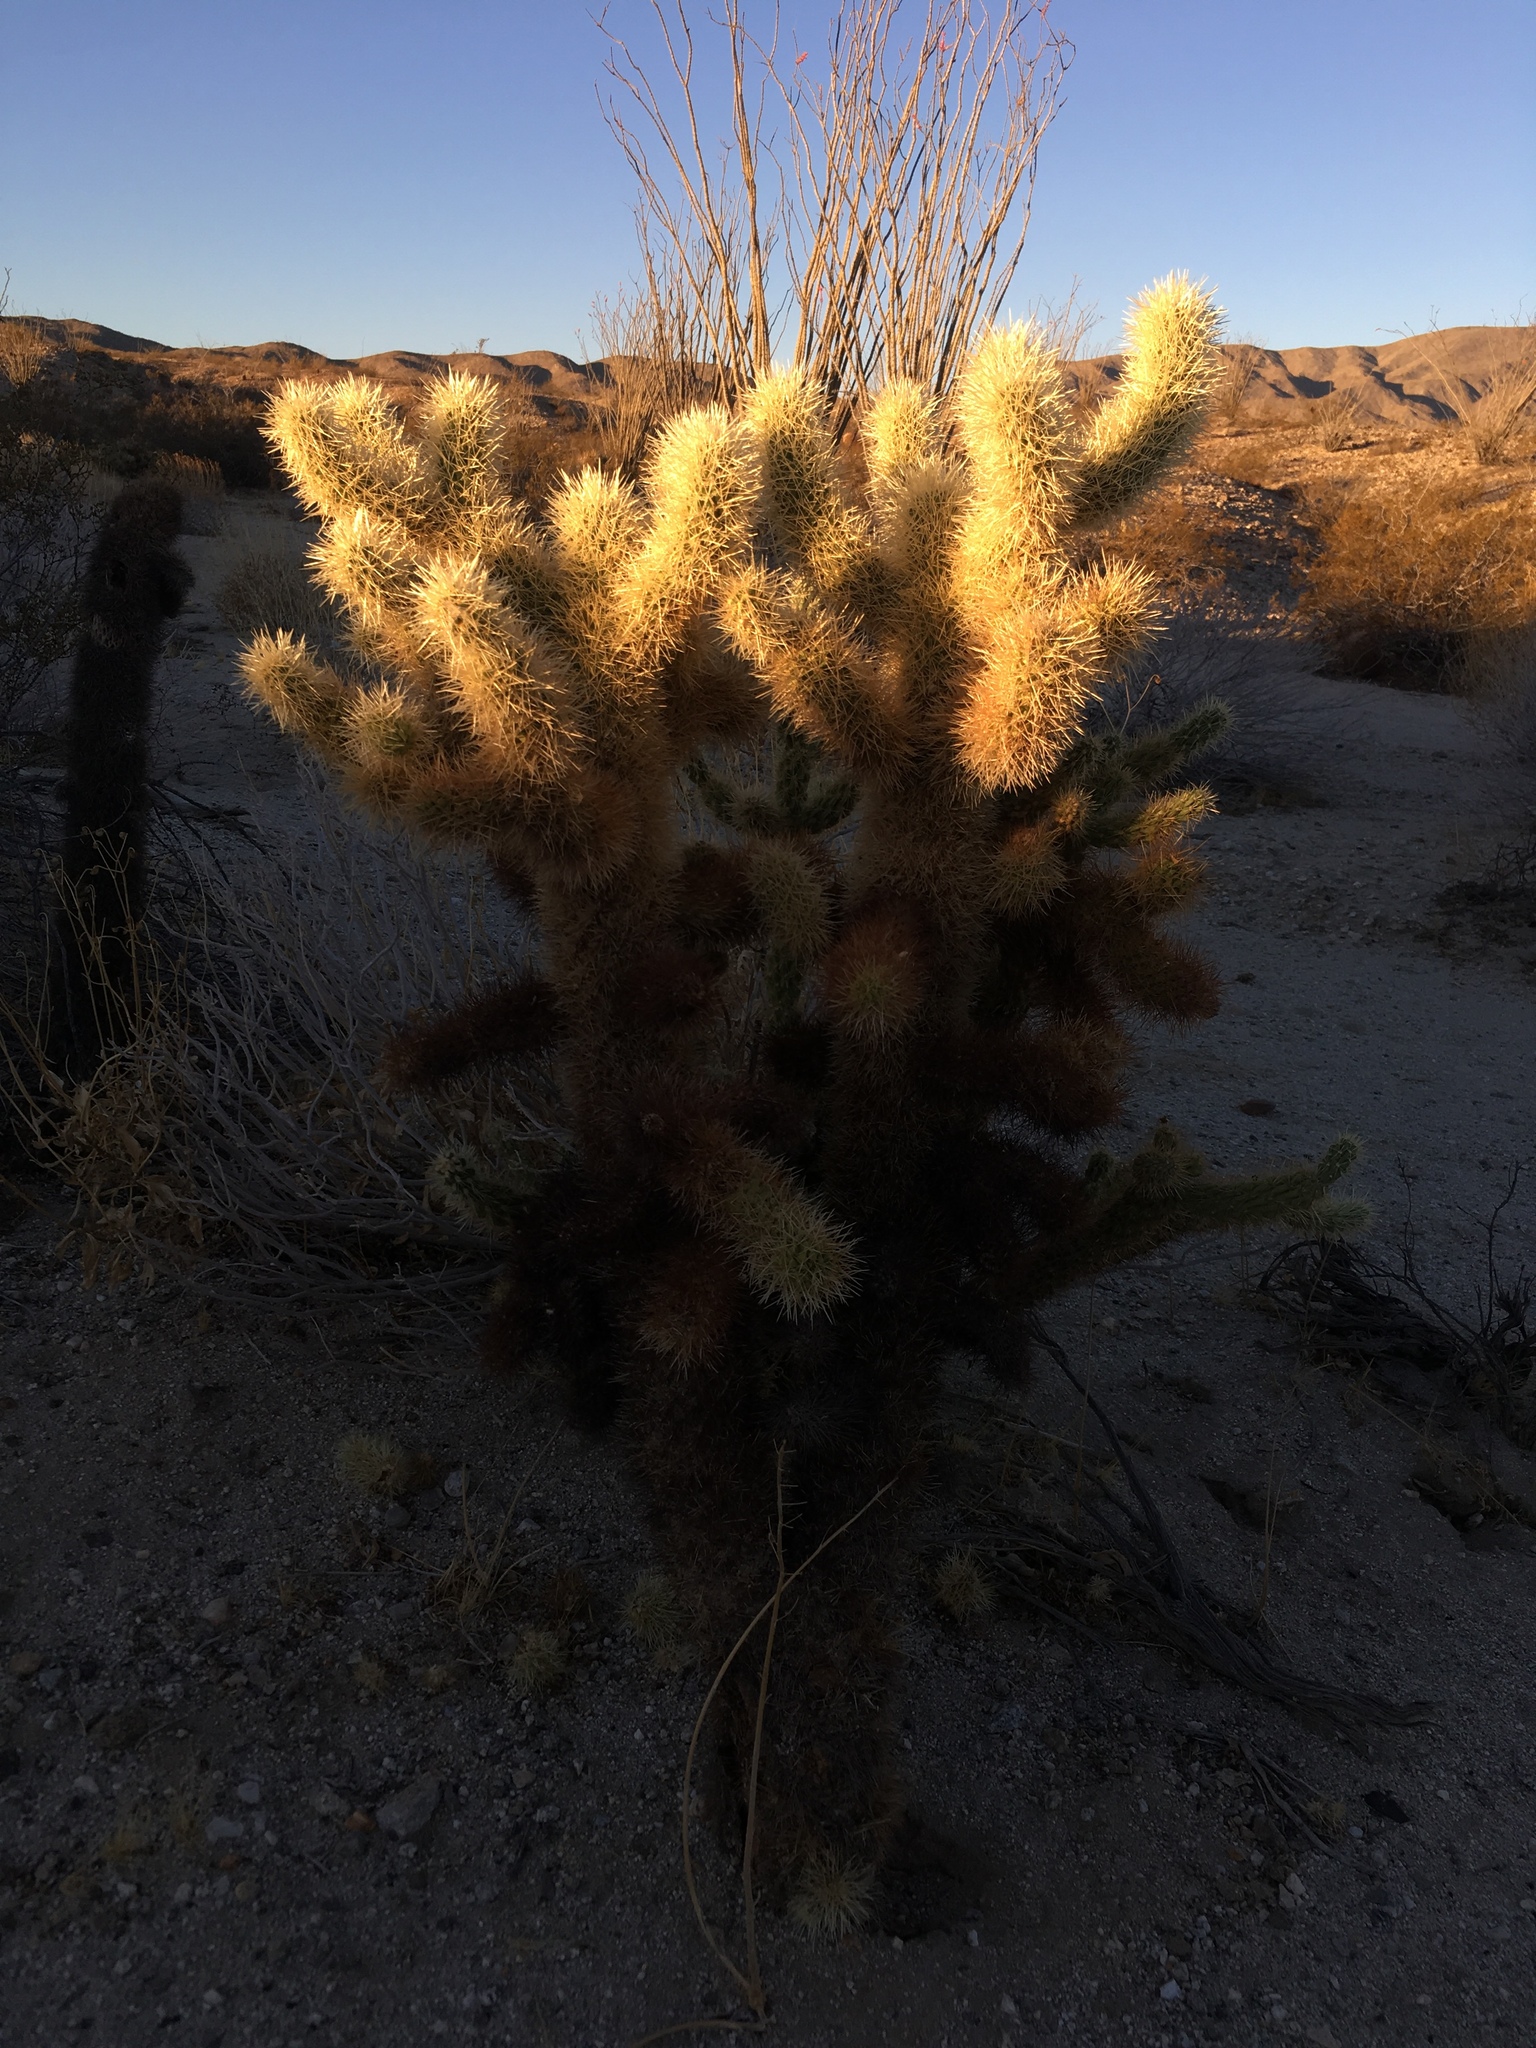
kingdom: Plantae
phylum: Tracheophyta
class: Magnoliopsida
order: Caryophyllales
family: Cactaceae
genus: Cylindropuntia
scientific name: Cylindropuntia fosbergii
